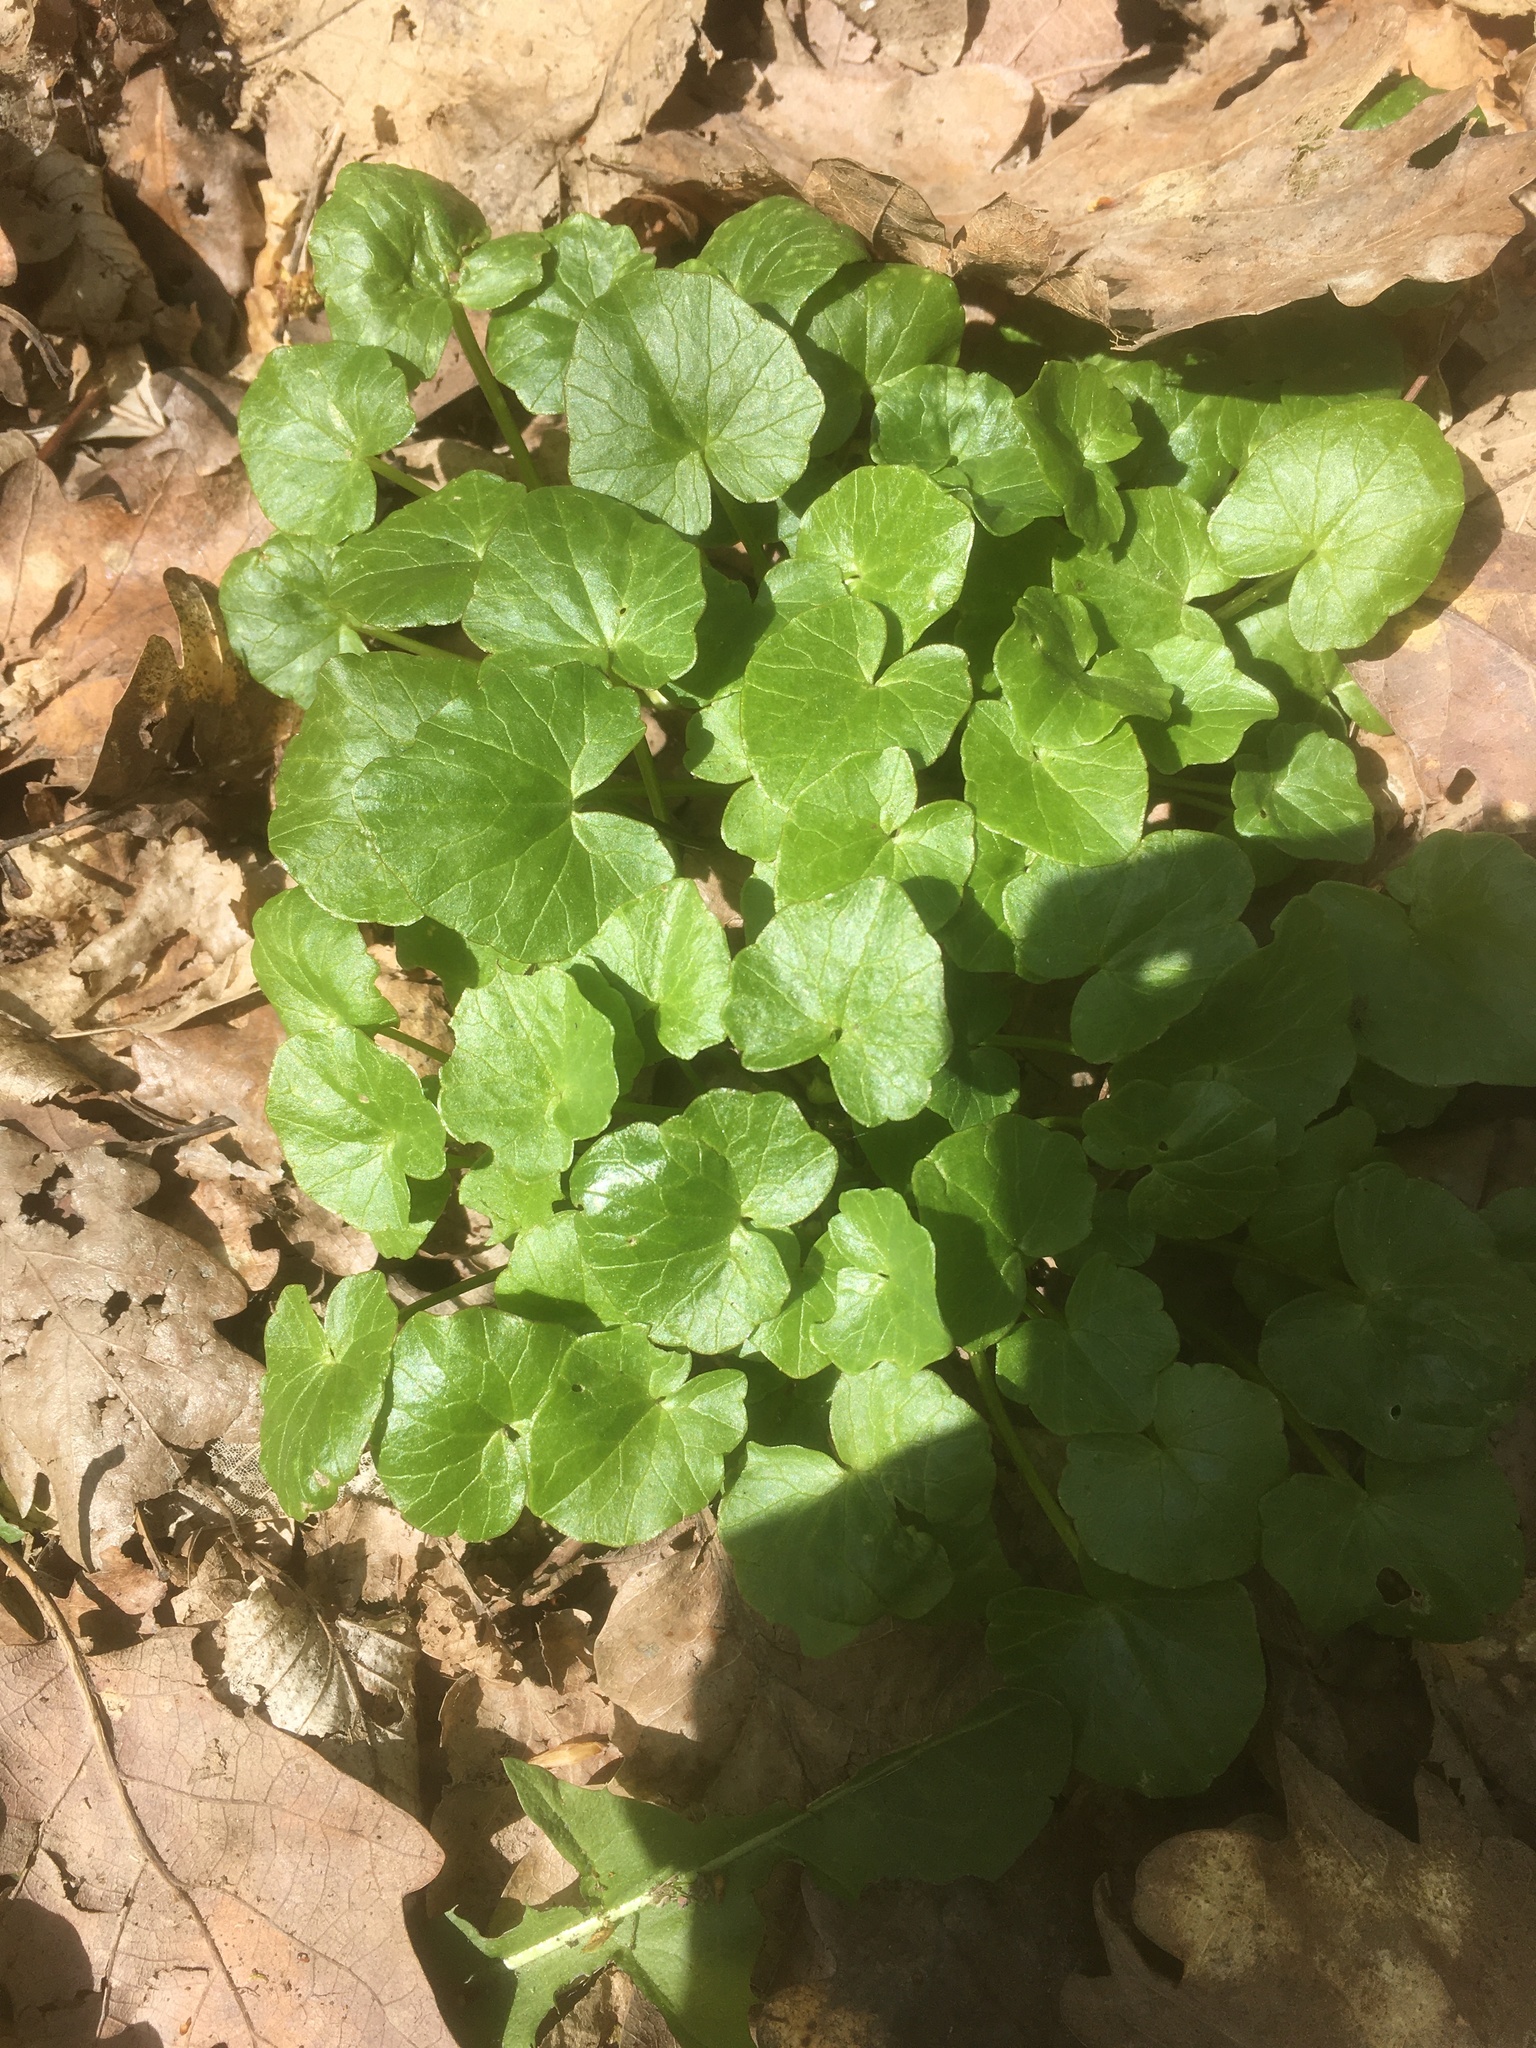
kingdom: Plantae
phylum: Tracheophyta
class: Magnoliopsida
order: Ranunculales
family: Ranunculaceae
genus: Ficaria
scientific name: Ficaria verna
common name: Lesser celandine
